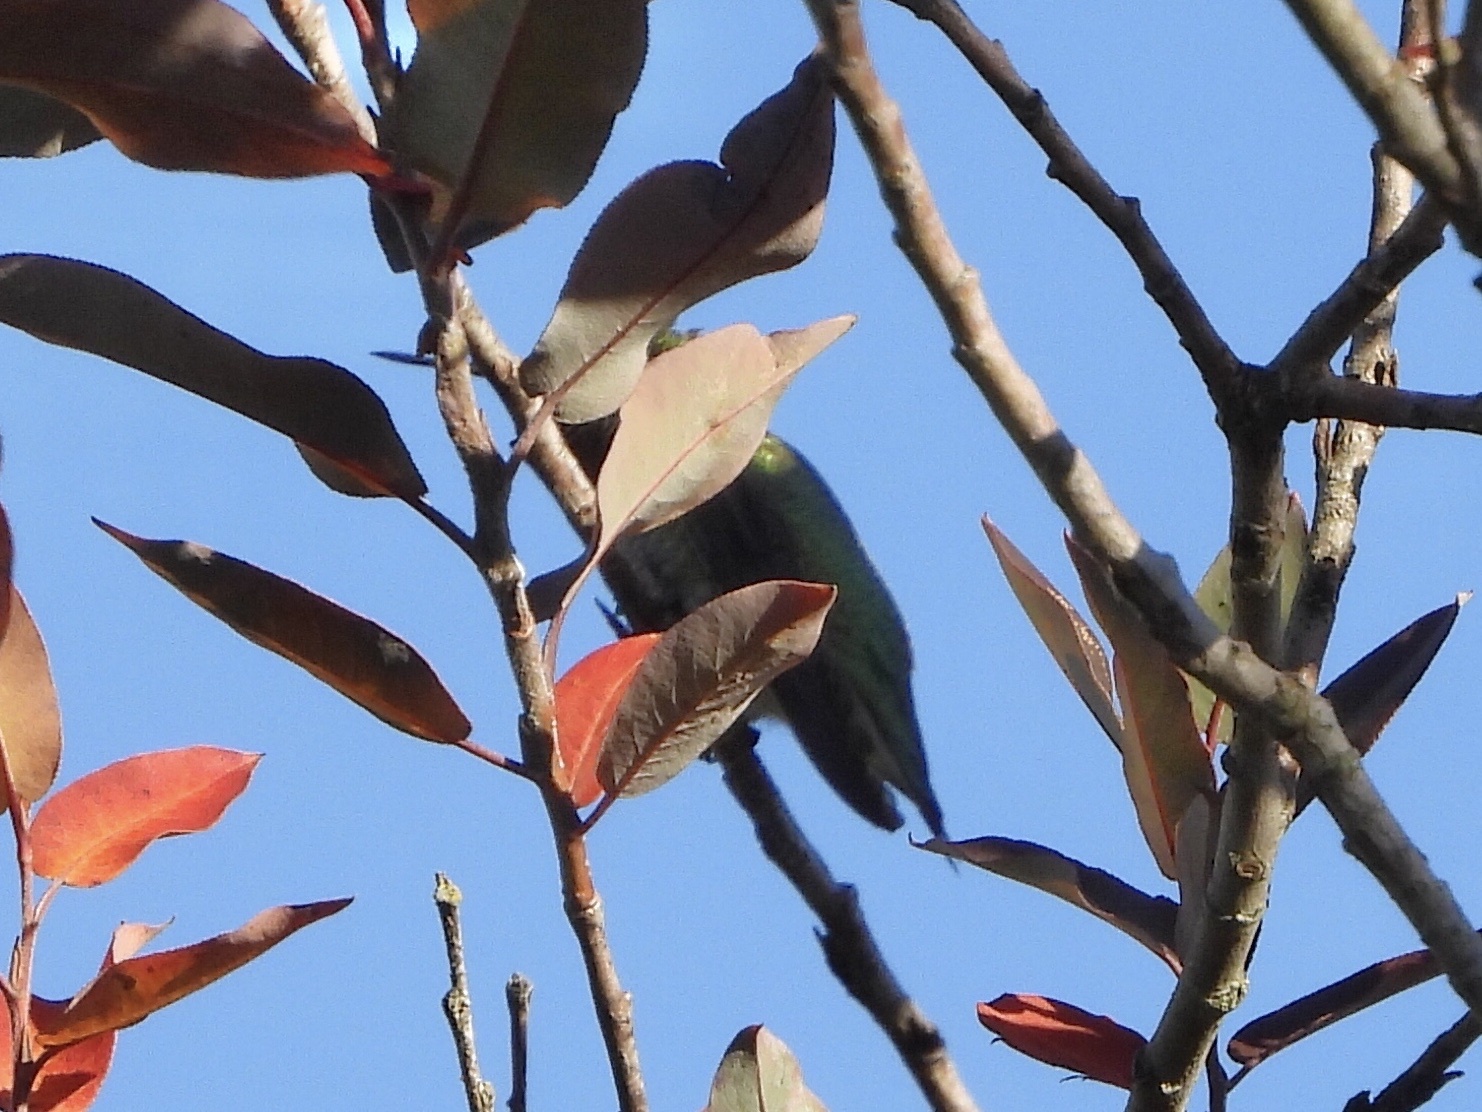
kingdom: Animalia
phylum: Chordata
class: Aves
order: Apodiformes
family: Trochilidae
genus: Calypte
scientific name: Calypte anna
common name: Anna's hummingbird
